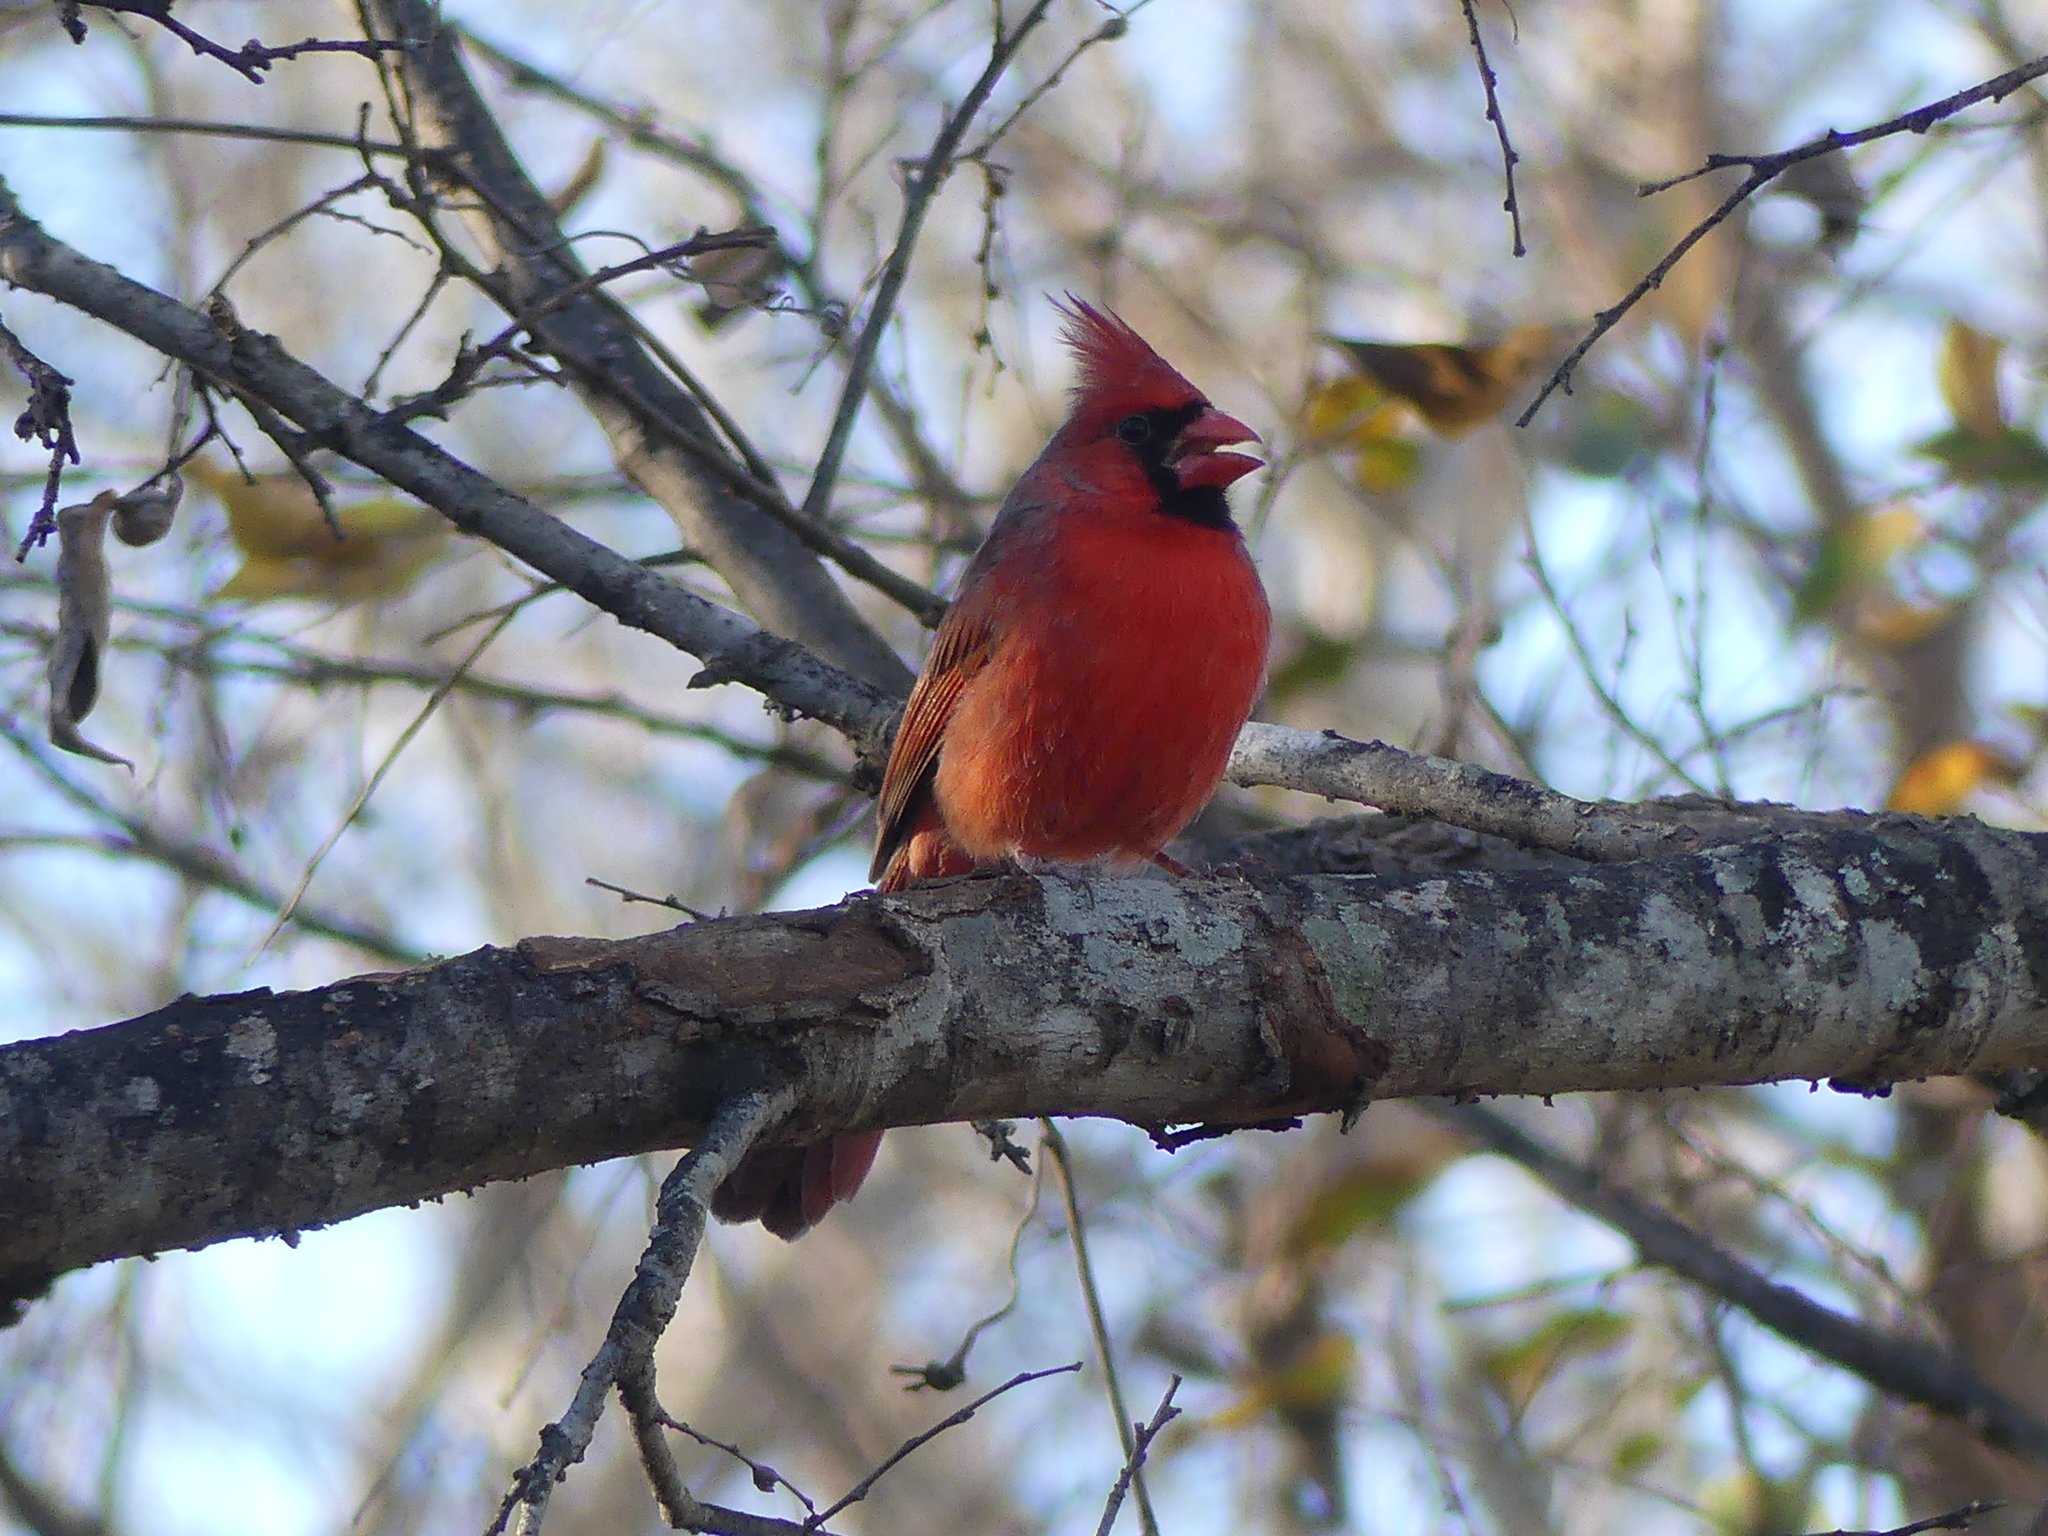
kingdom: Animalia
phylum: Chordata
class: Aves
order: Passeriformes
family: Cardinalidae
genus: Cardinalis
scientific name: Cardinalis cardinalis
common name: Northern cardinal
